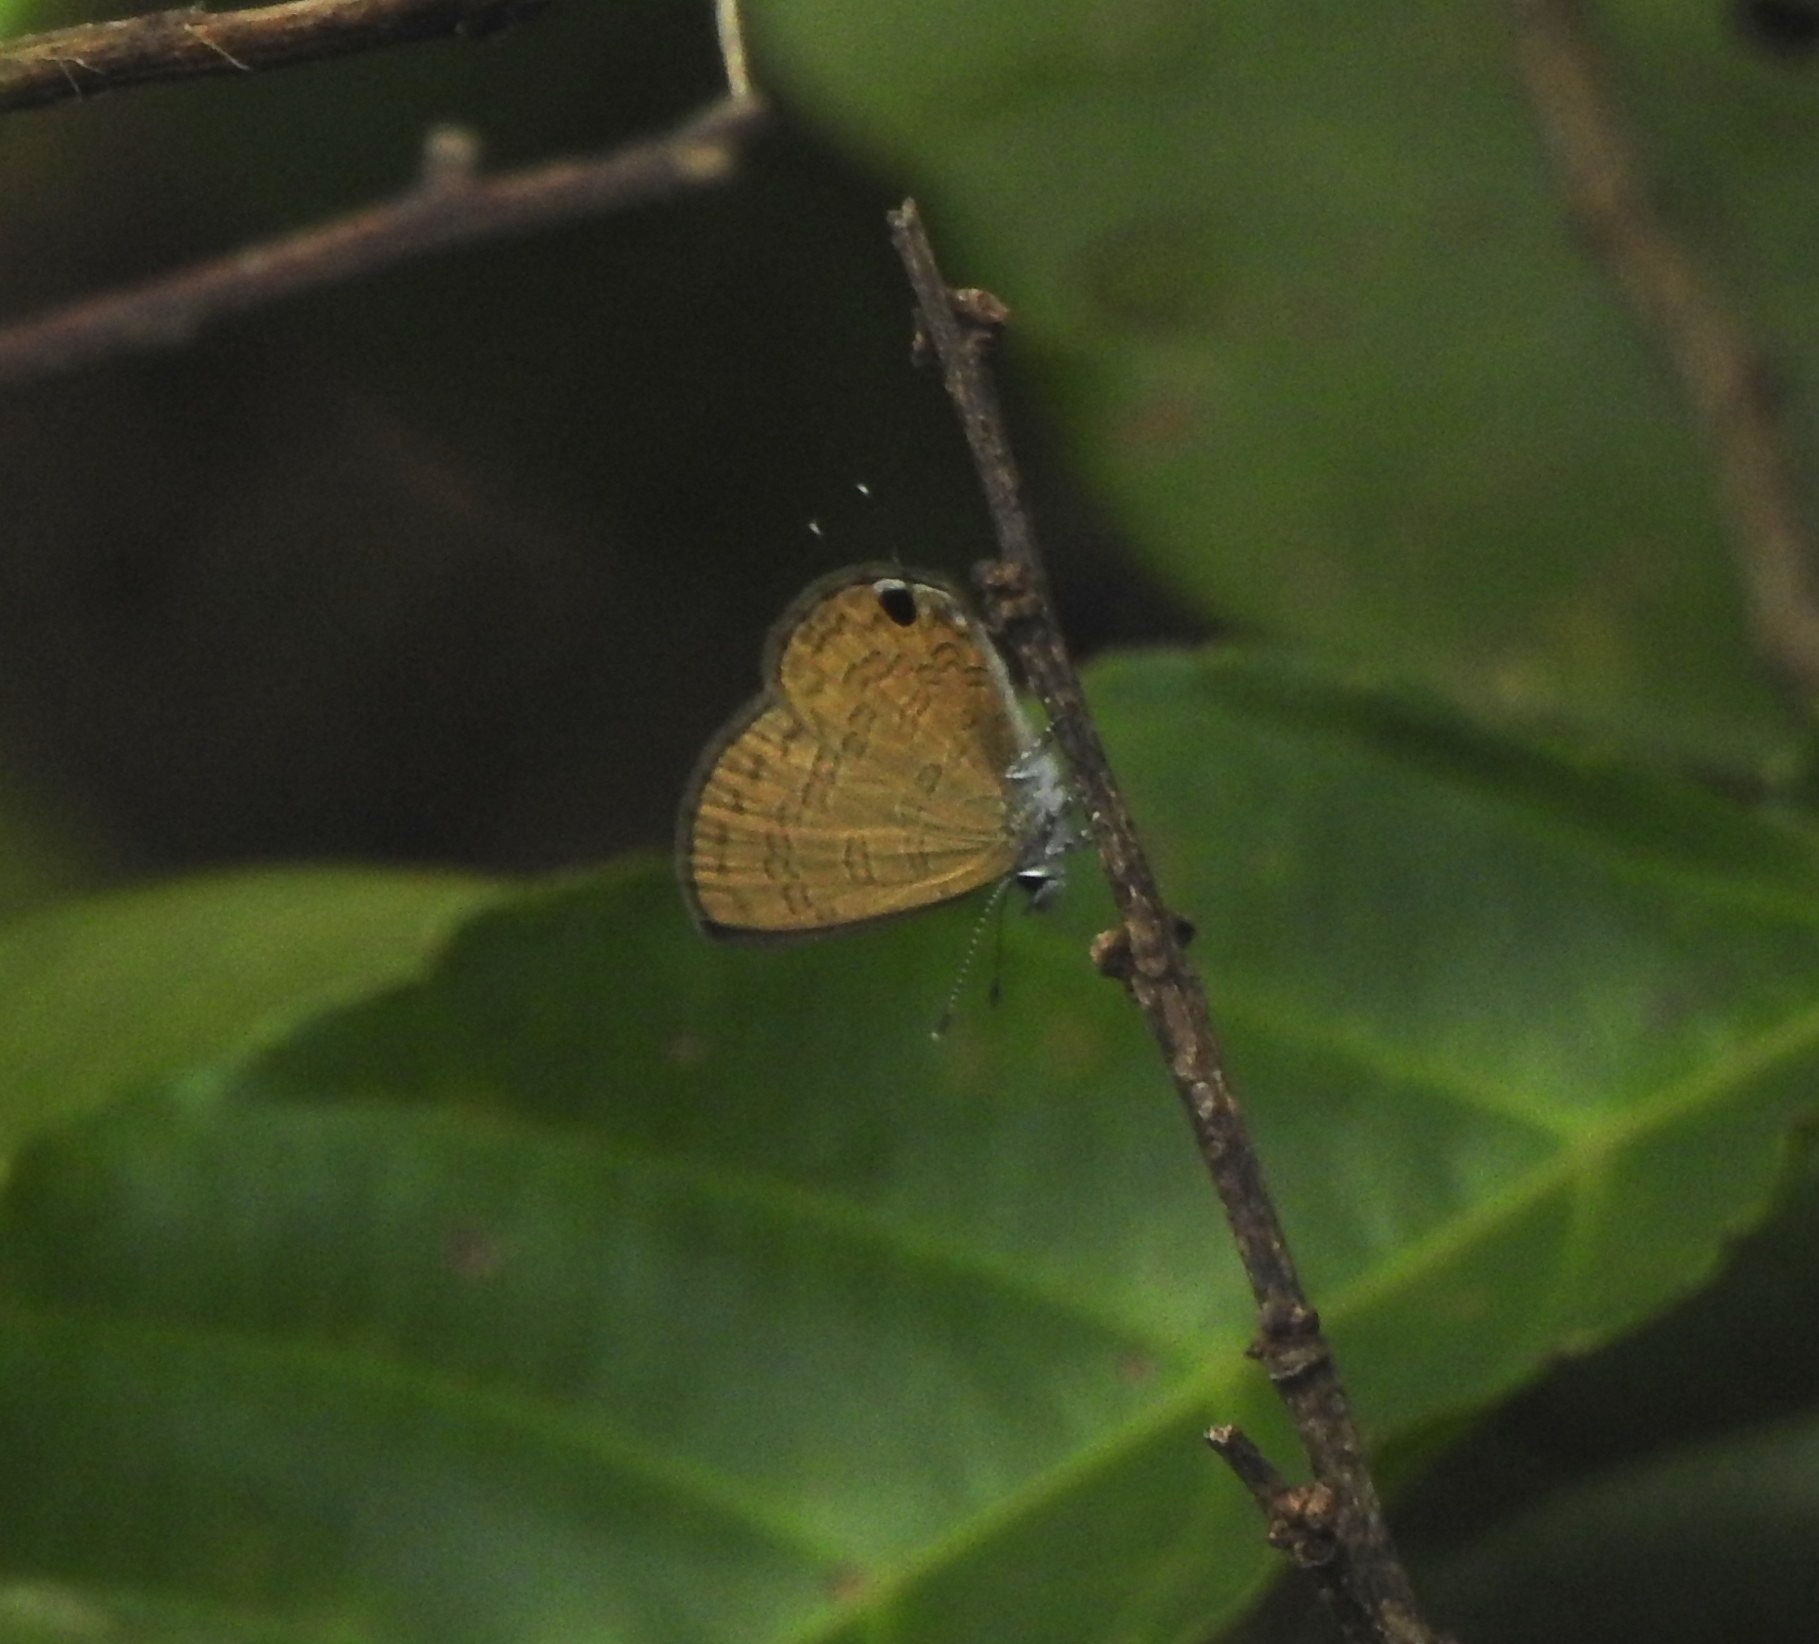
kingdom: Animalia
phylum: Arthropoda
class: Insecta
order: Lepidoptera
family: Lycaenidae
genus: Prosotas
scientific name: Prosotas nora
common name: Common line blue
